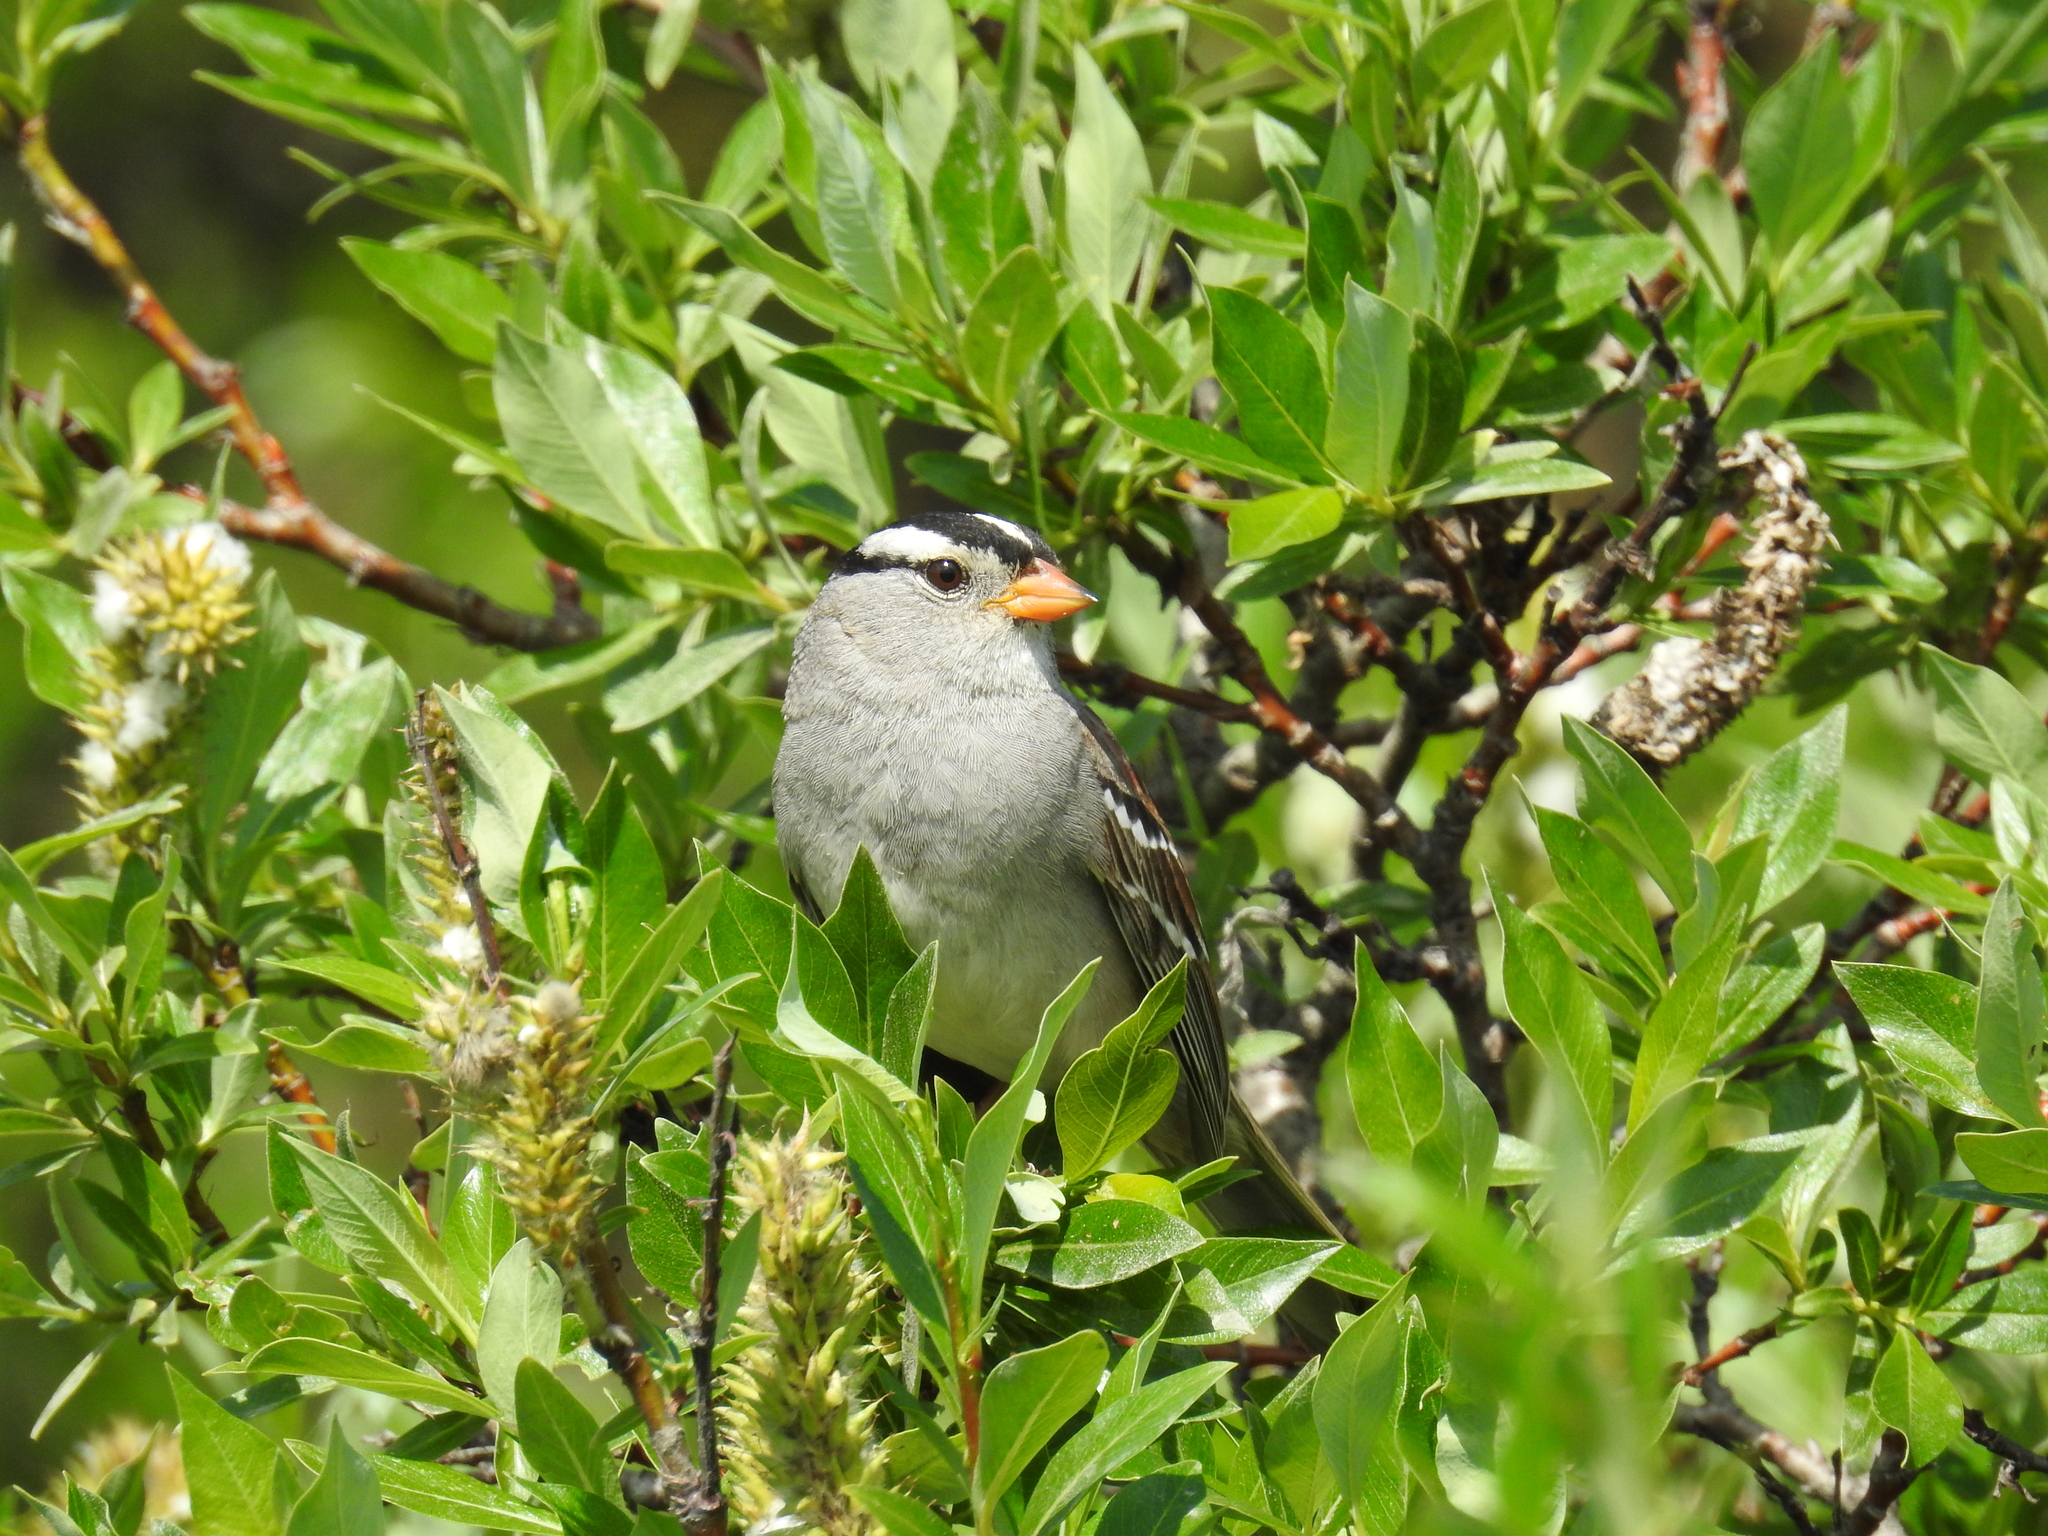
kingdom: Animalia
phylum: Chordata
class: Aves
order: Passeriformes
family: Passerellidae
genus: Zonotrichia
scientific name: Zonotrichia leucophrys
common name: White-crowned sparrow
